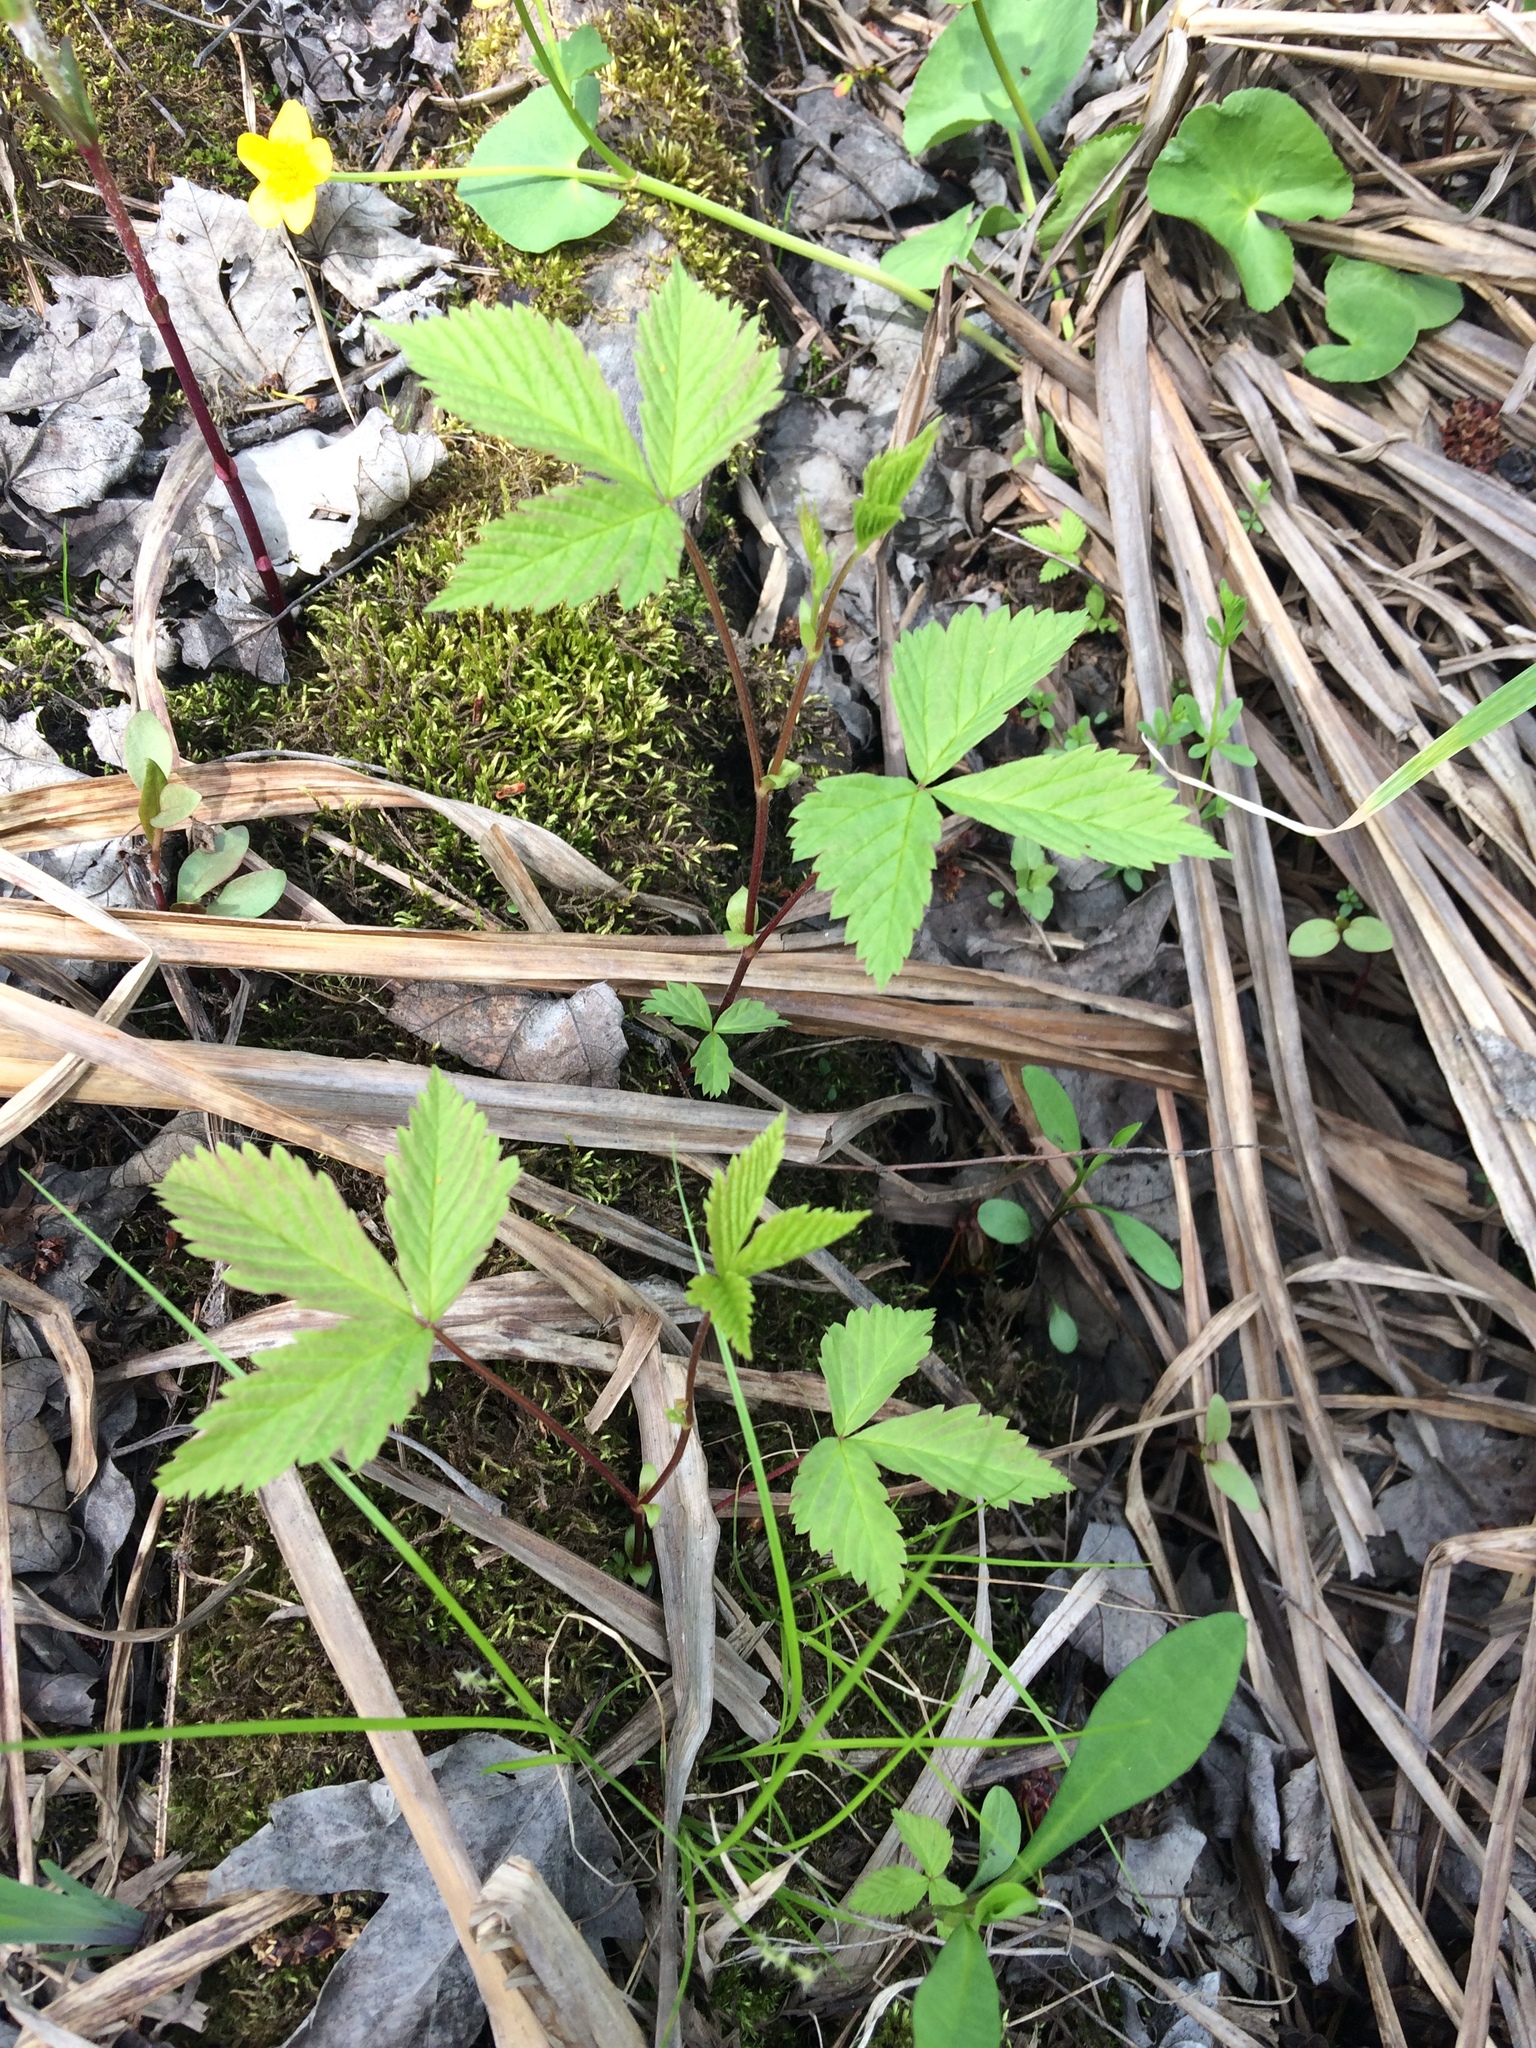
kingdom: Plantae
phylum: Tracheophyta
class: Magnoliopsida
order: Rosales
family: Rosaceae
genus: Rubus
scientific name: Rubus pubescens
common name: Dwarf raspberry
